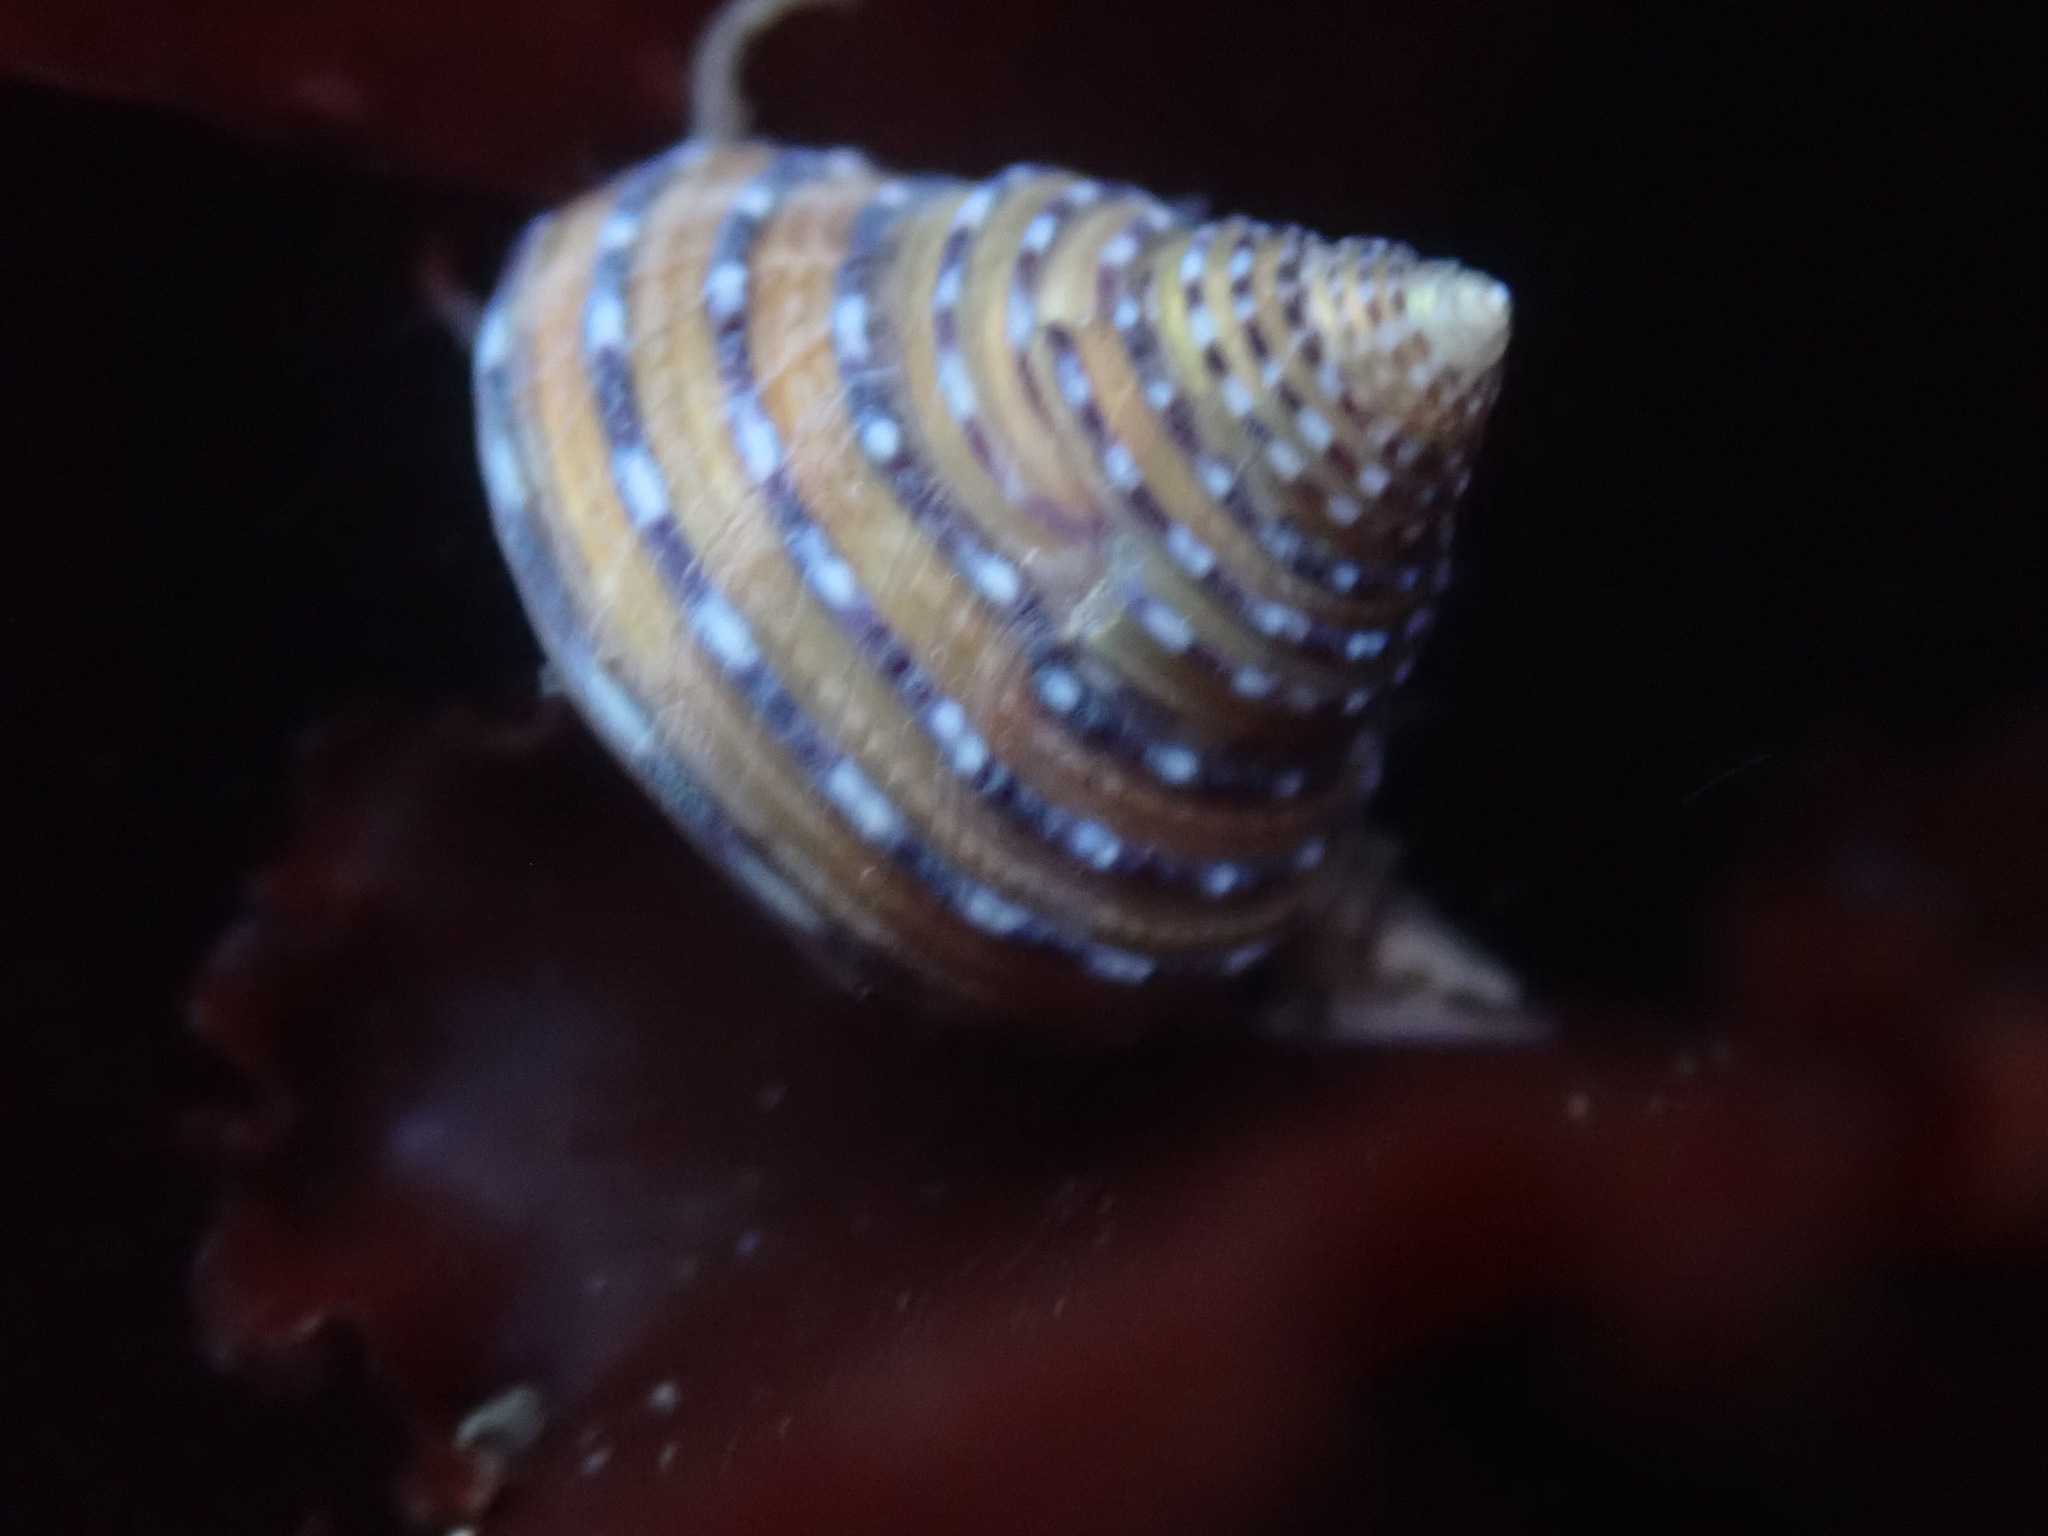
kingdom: Animalia
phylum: Mollusca
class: Gastropoda
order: Trochida
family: Calliostomatidae
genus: Calliostoma
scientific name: Calliostoma tricolor
